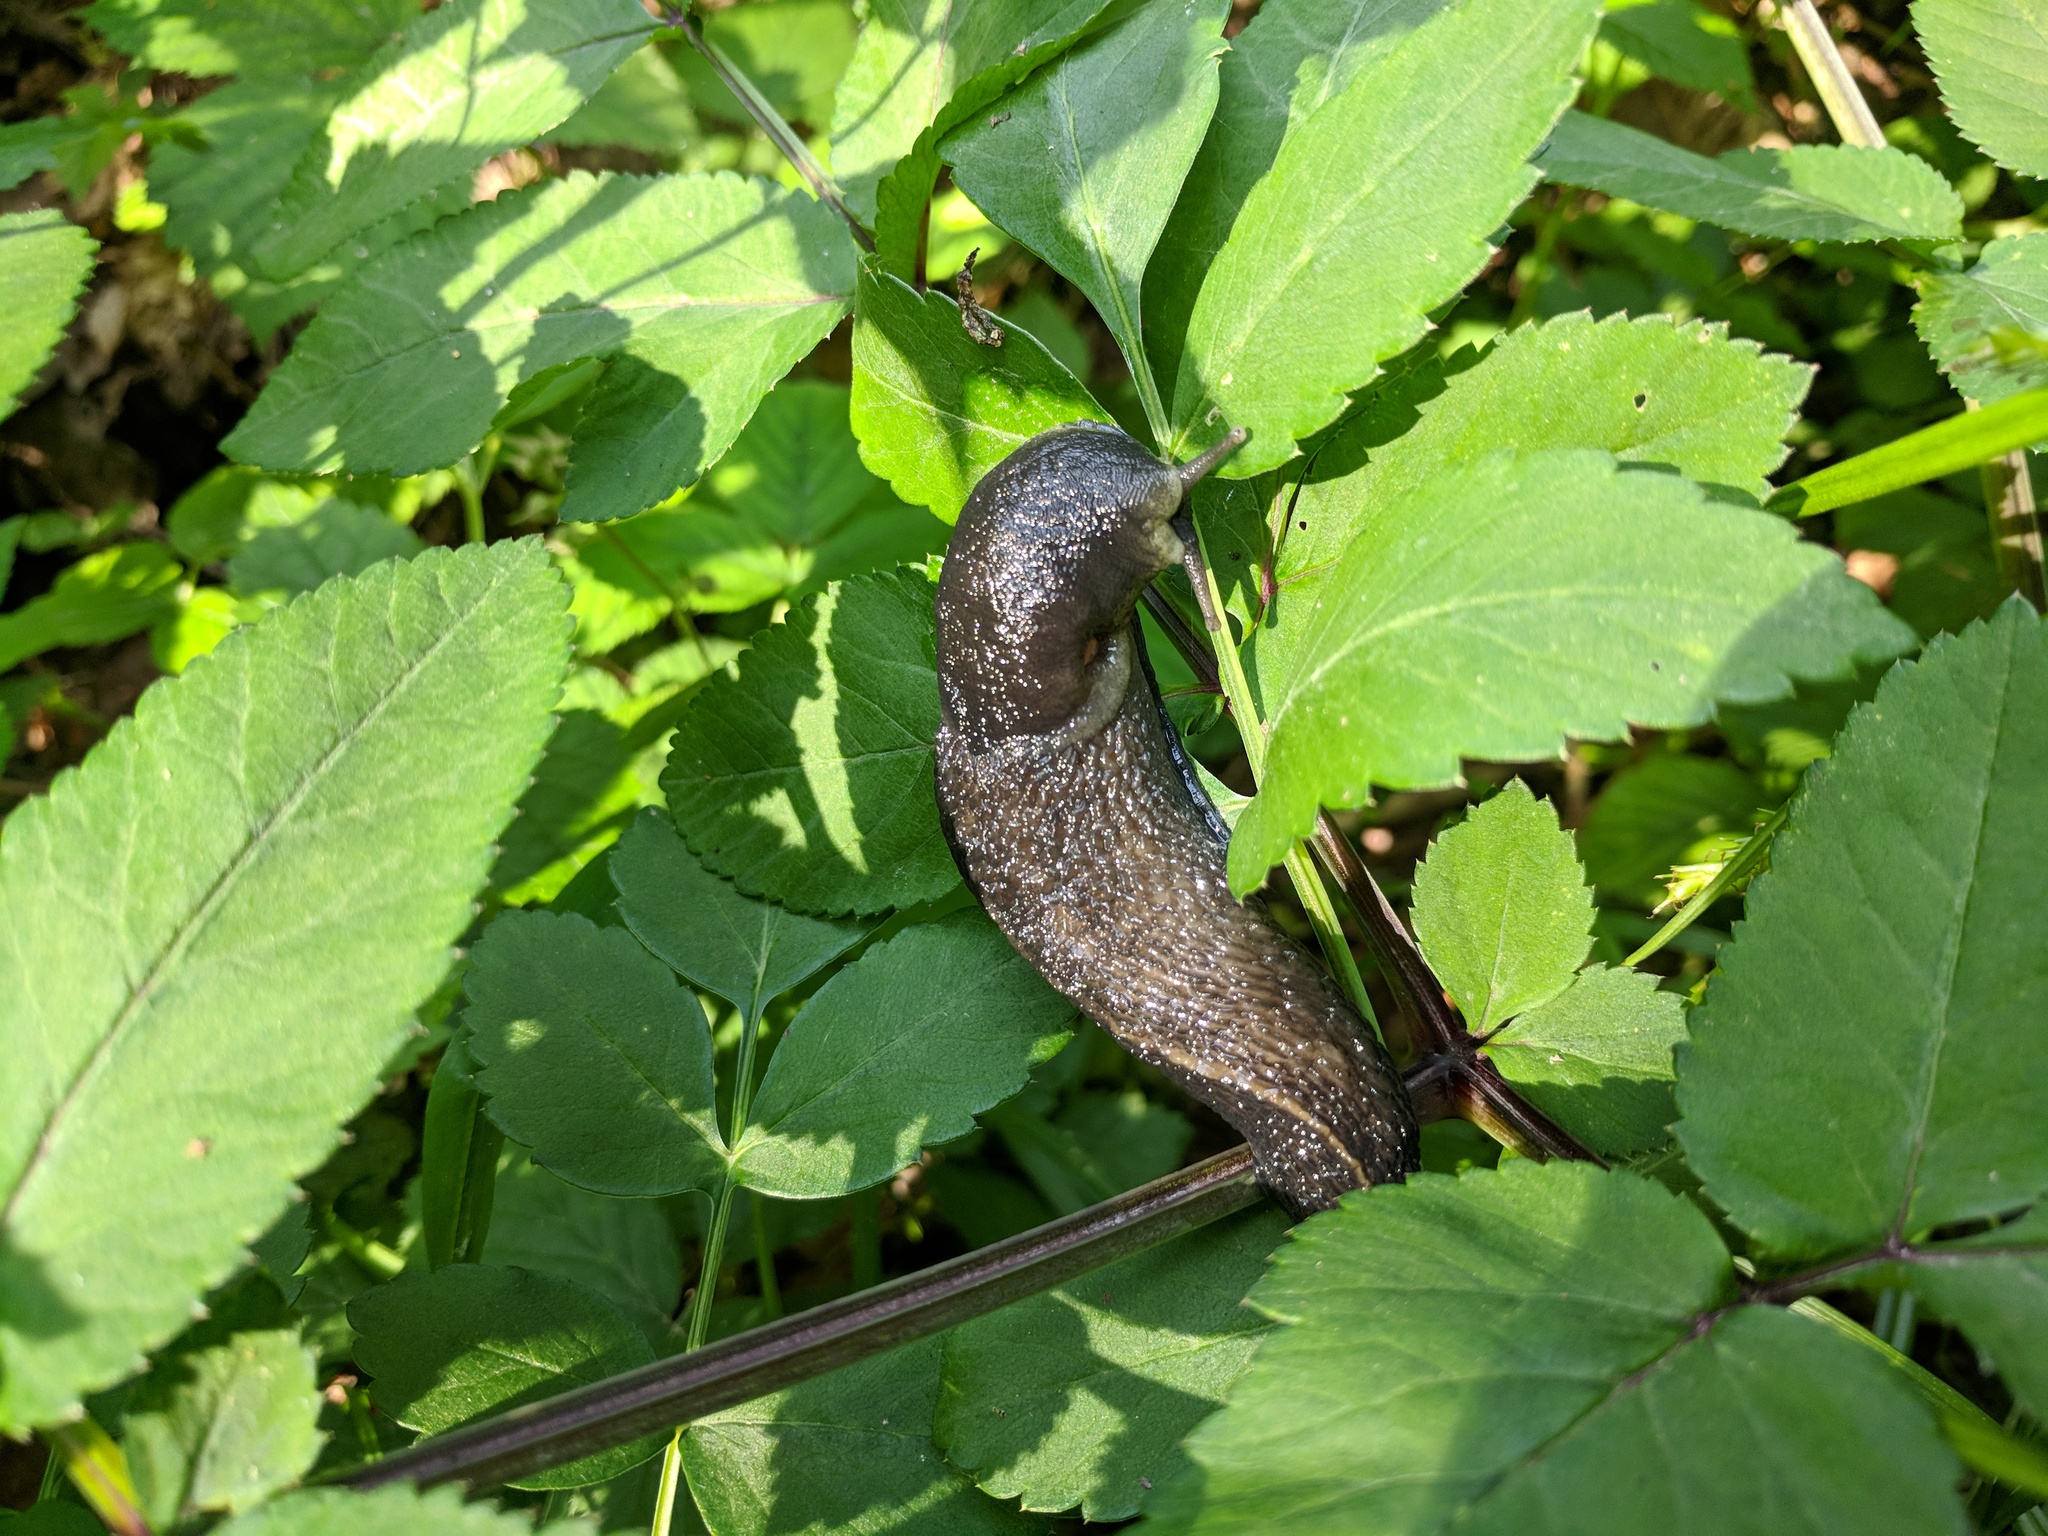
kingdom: Animalia
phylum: Mollusca
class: Gastropoda
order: Stylommatophora
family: Limacidae
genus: Limax
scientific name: Limax cinereoniger
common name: Ash-black slug
